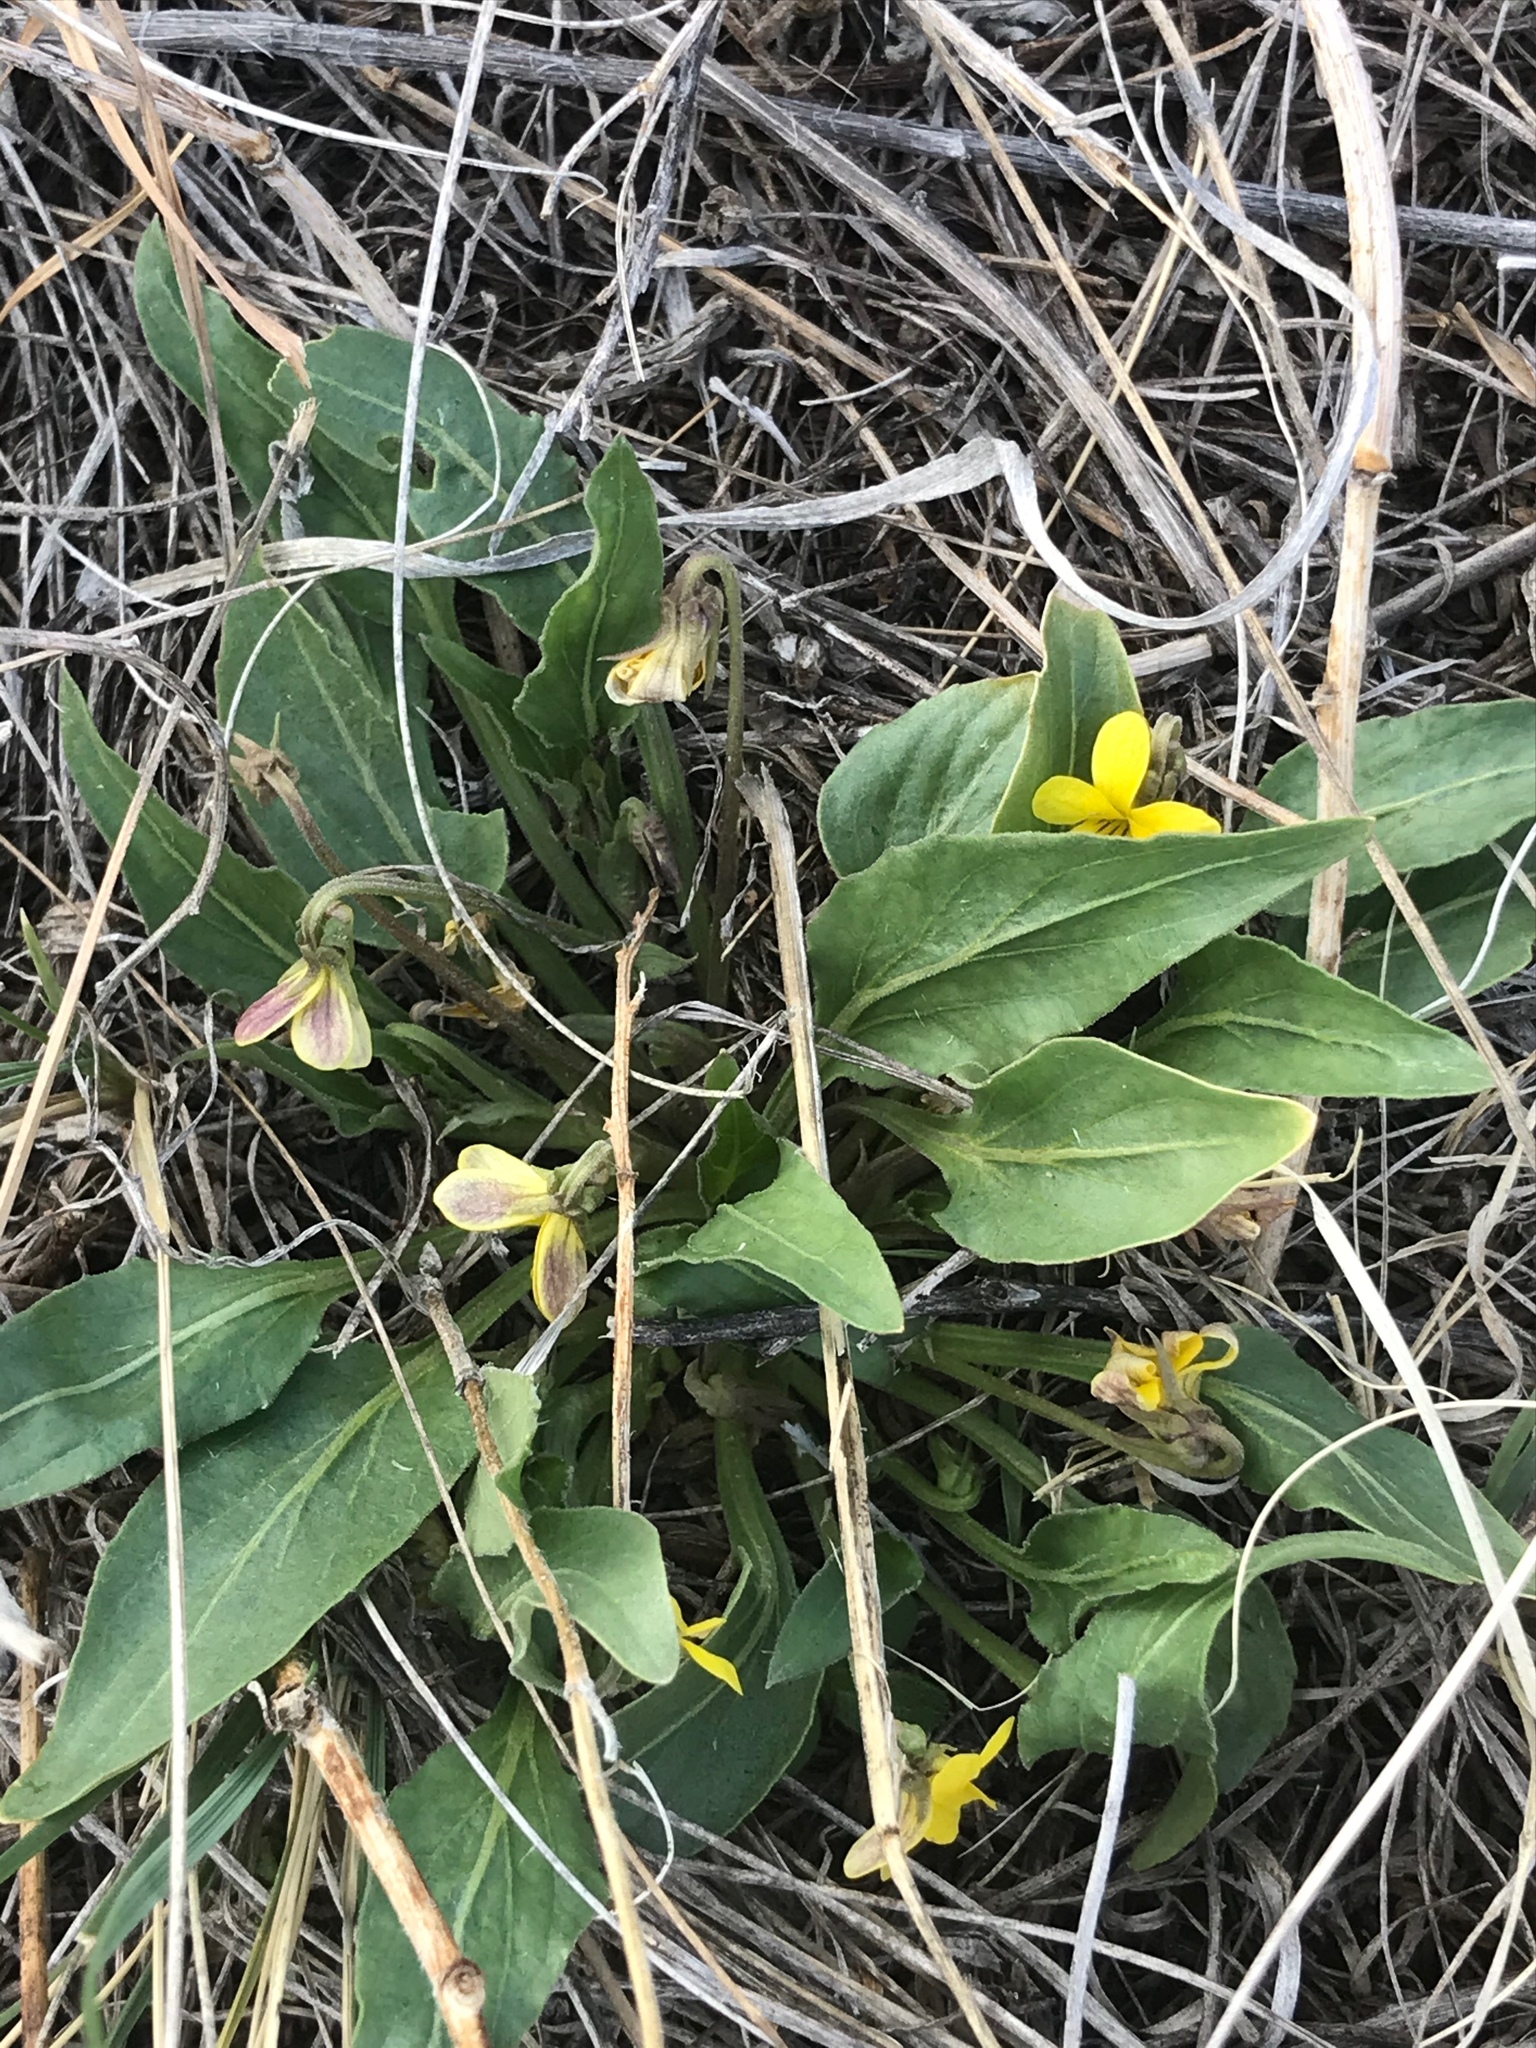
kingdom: Plantae
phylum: Tracheophyta
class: Magnoliopsida
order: Malpighiales
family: Violaceae
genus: Viola
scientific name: Viola nuttallii
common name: Yellow prairie violet
